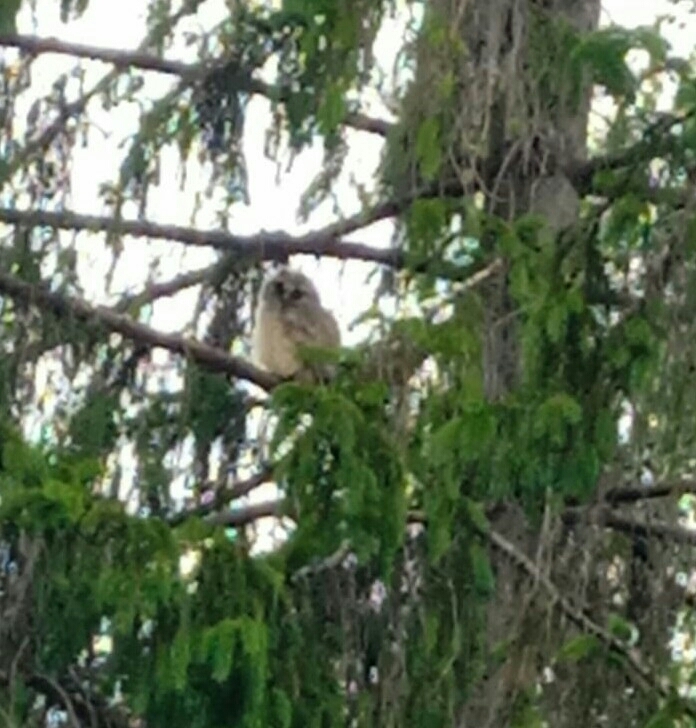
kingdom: Animalia
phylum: Chordata
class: Aves
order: Strigiformes
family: Strigidae
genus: Asio
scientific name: Asio otus
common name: Long-eared owl
